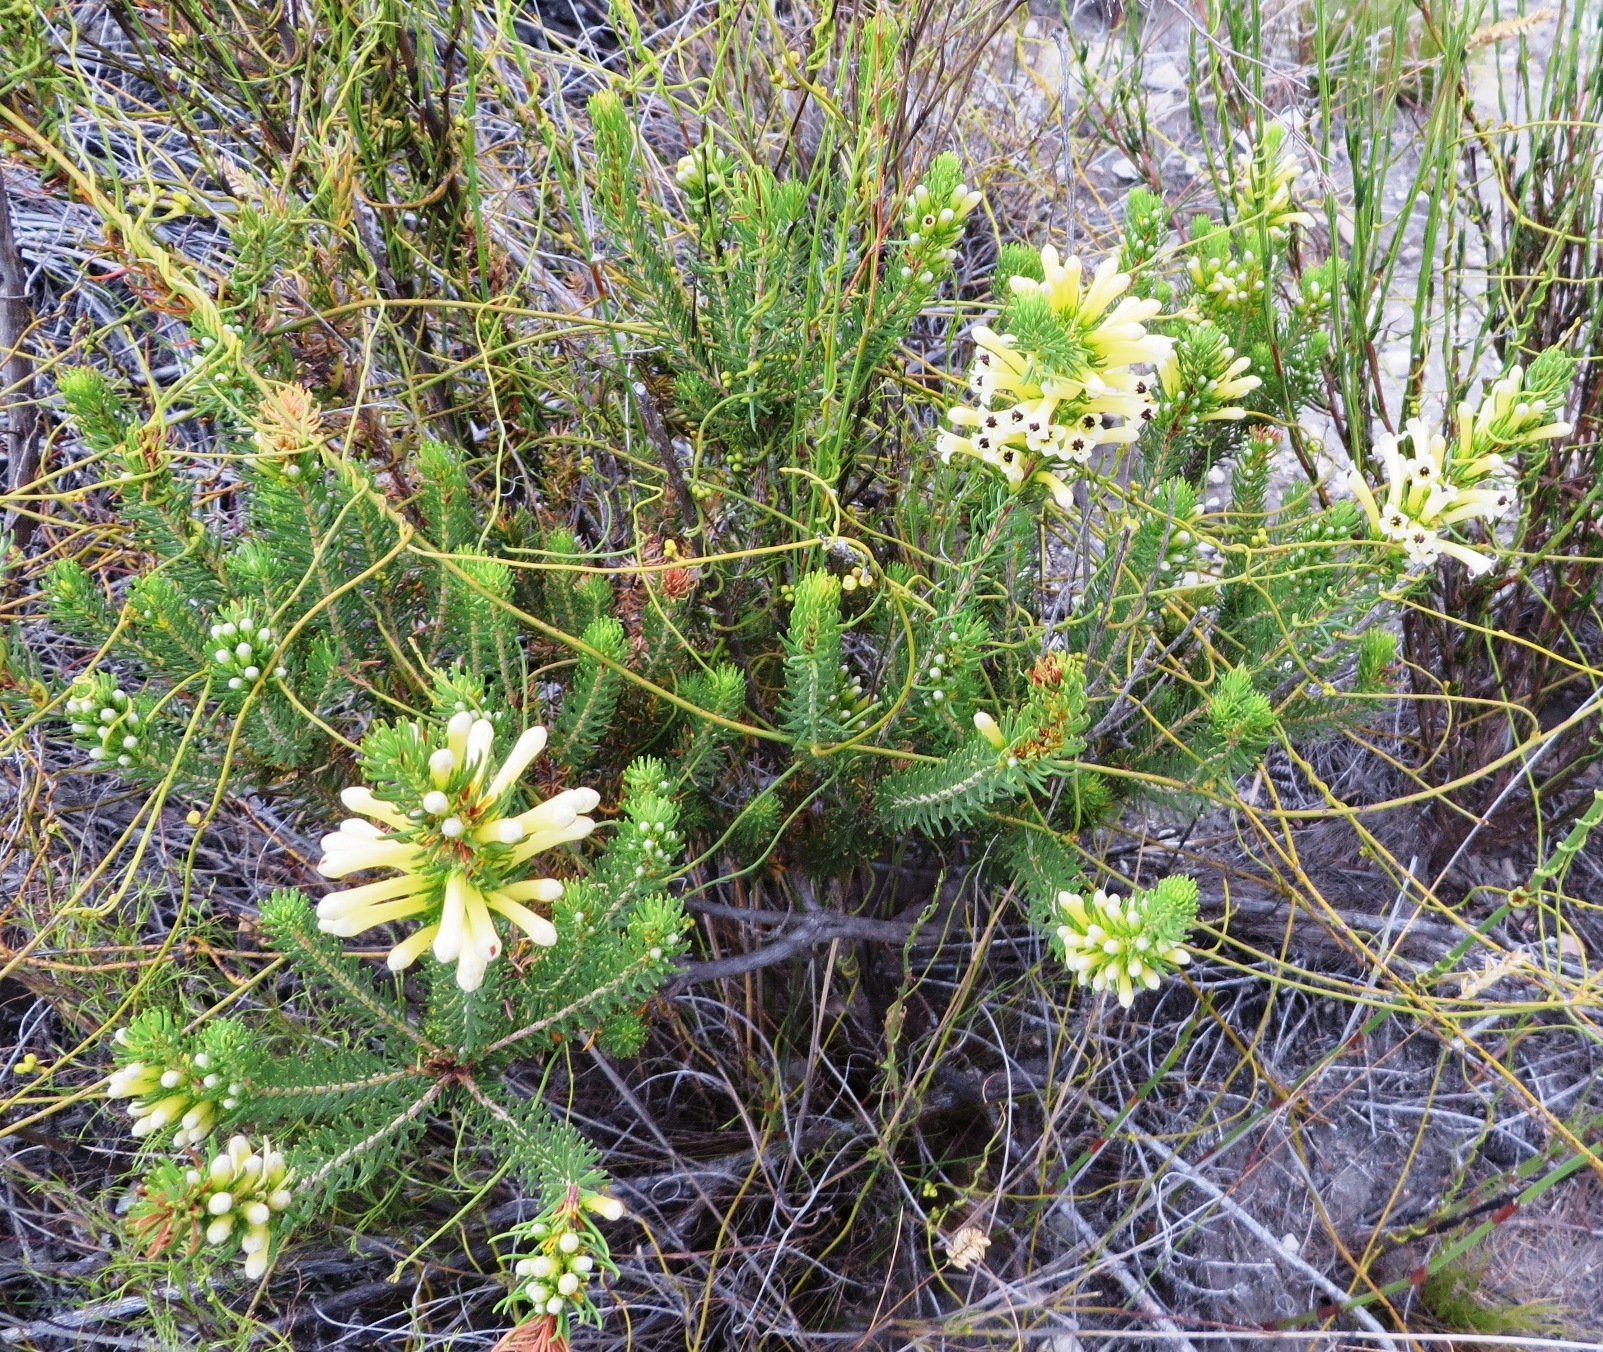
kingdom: Plantae
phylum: Tracheophyta
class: Magnoliopsida
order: Ericales
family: Ericaceae
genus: Erica
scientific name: Erica pinea
